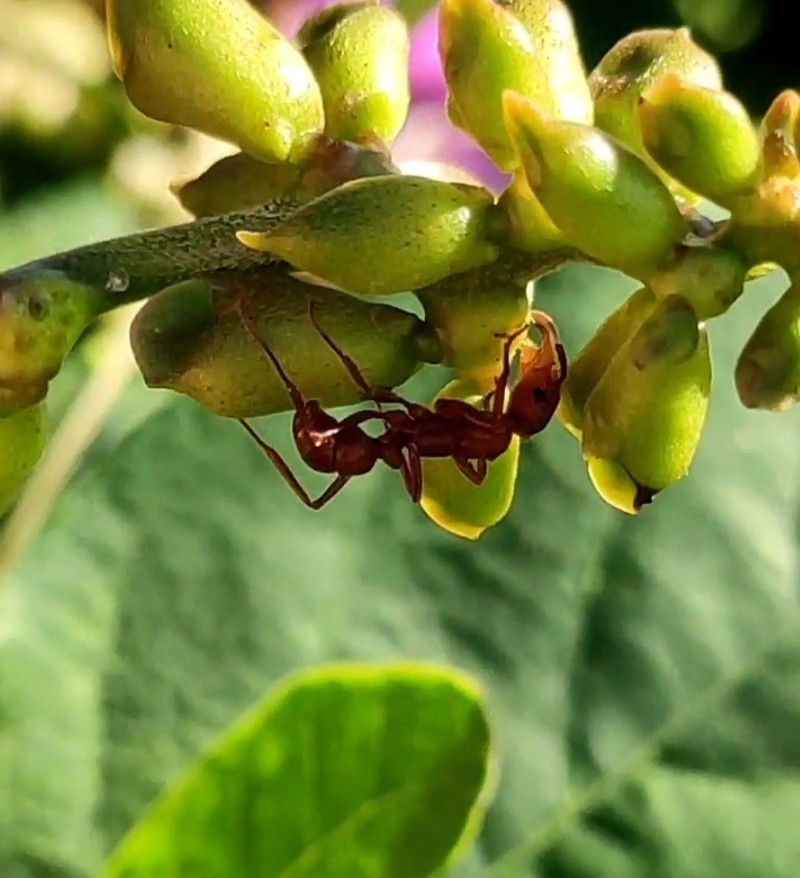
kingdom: Animalia
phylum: Arthropoda
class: Insecta
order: Hymenoptera
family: Formicidae
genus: Ectatomma
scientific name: Ectatomma tuberculatum
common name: Ant
